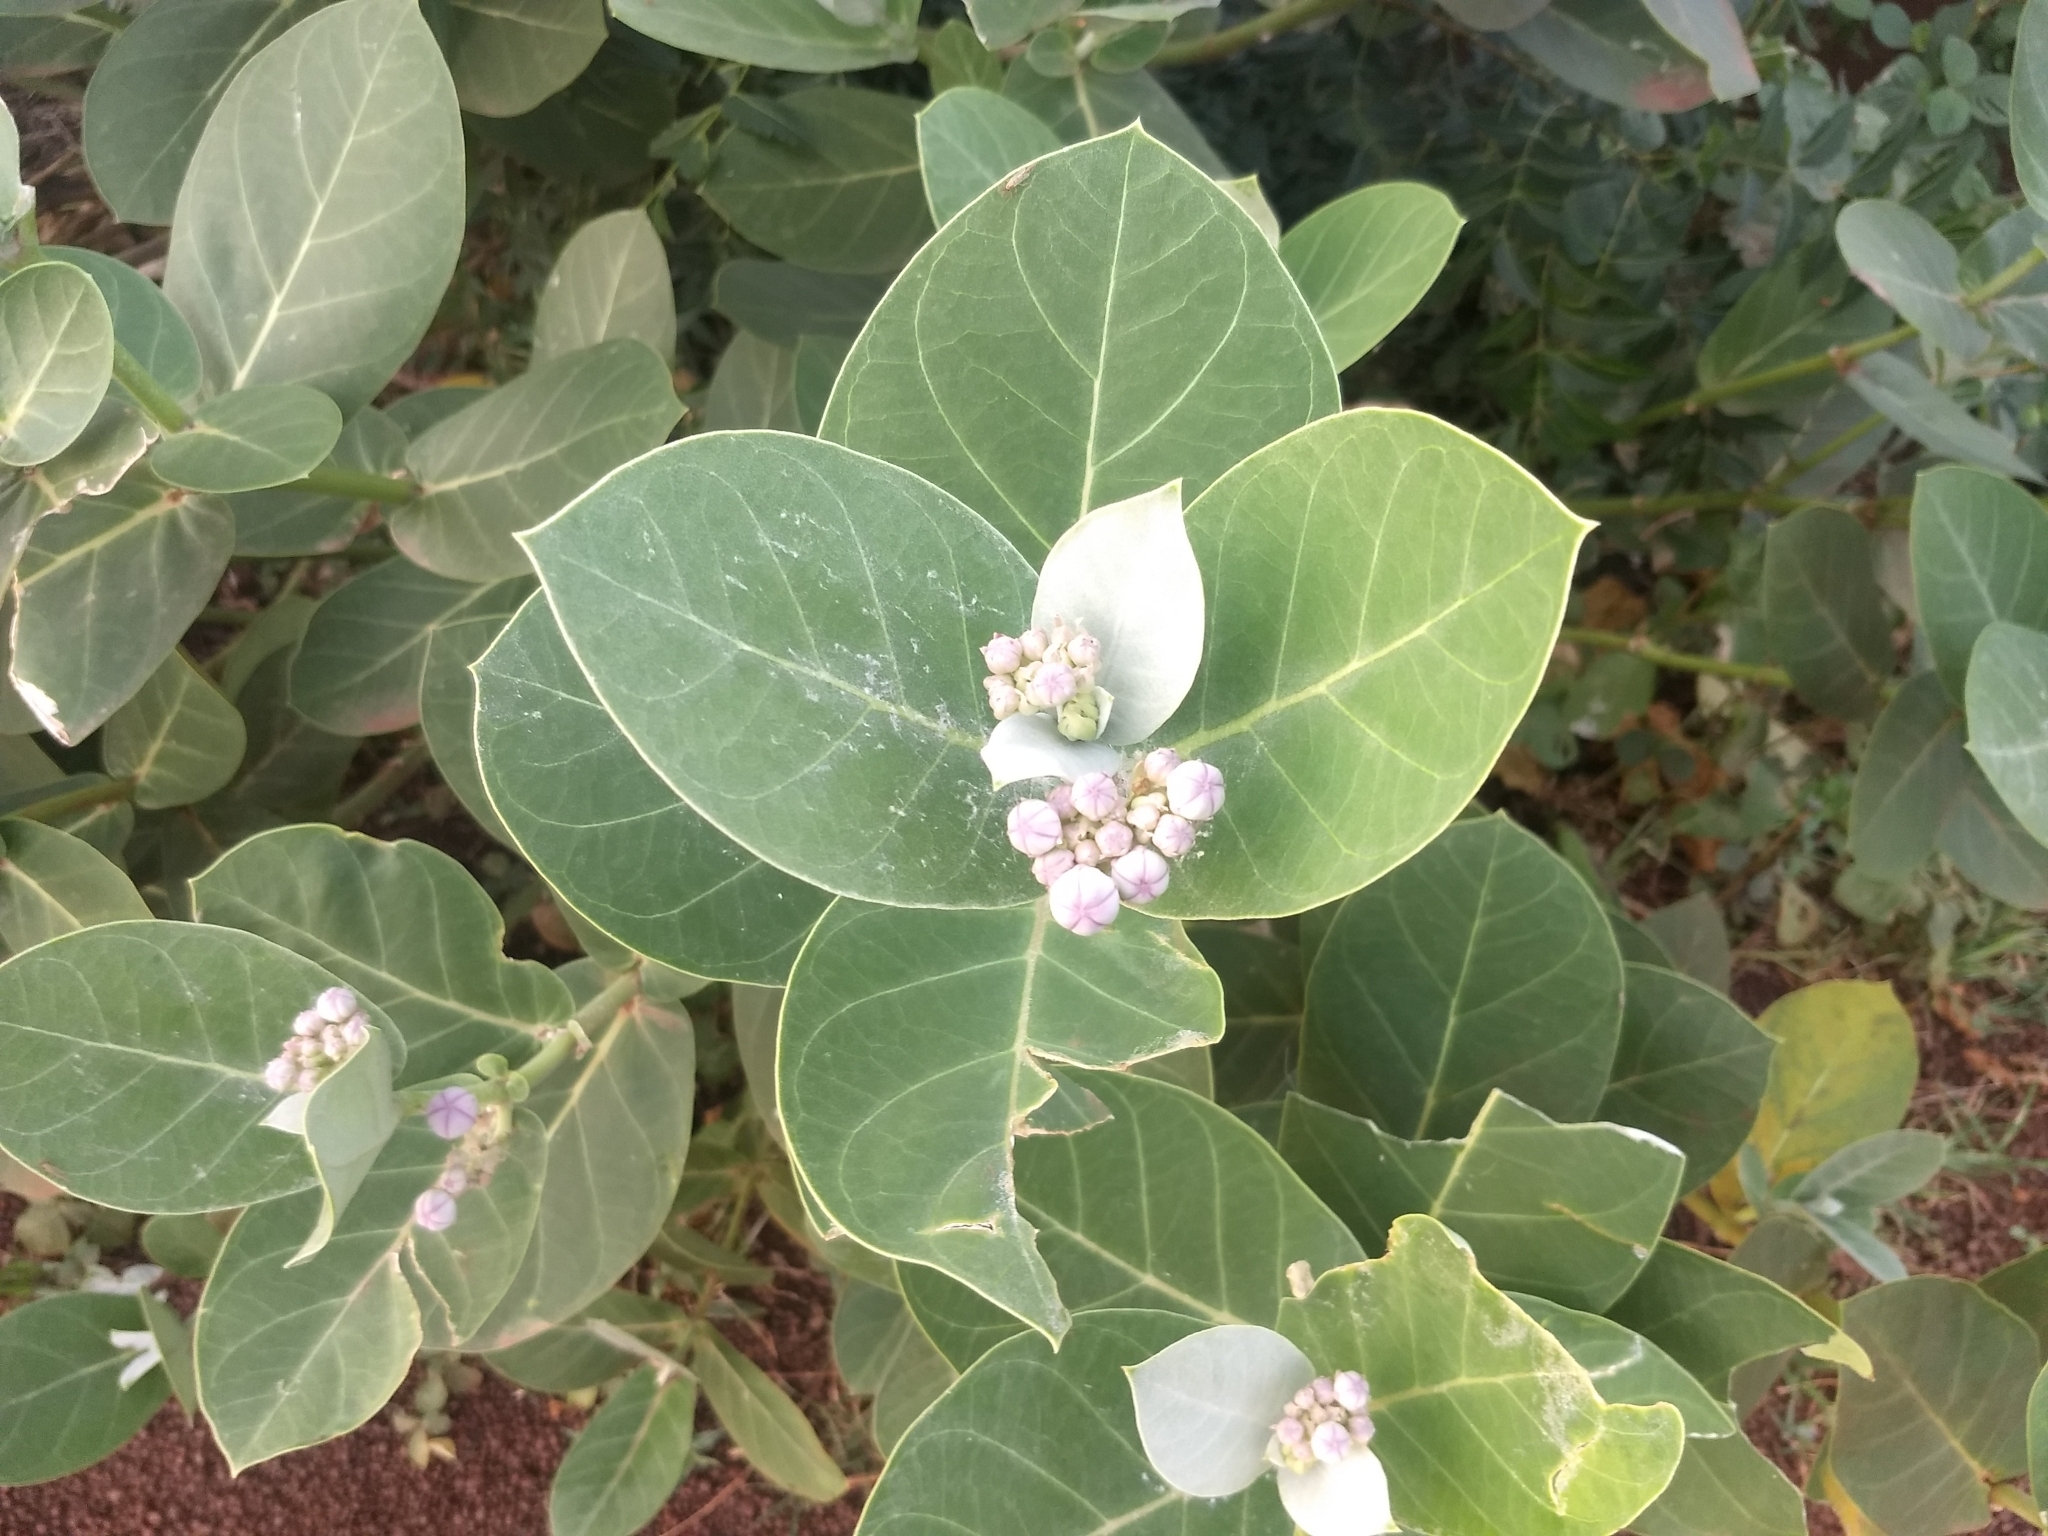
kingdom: Plantae
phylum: Tracheophyta
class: Magnoliopsida
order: Gentianales
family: Apocynaceae
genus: Calotropis
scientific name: Calotropis procera
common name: Roostertree
